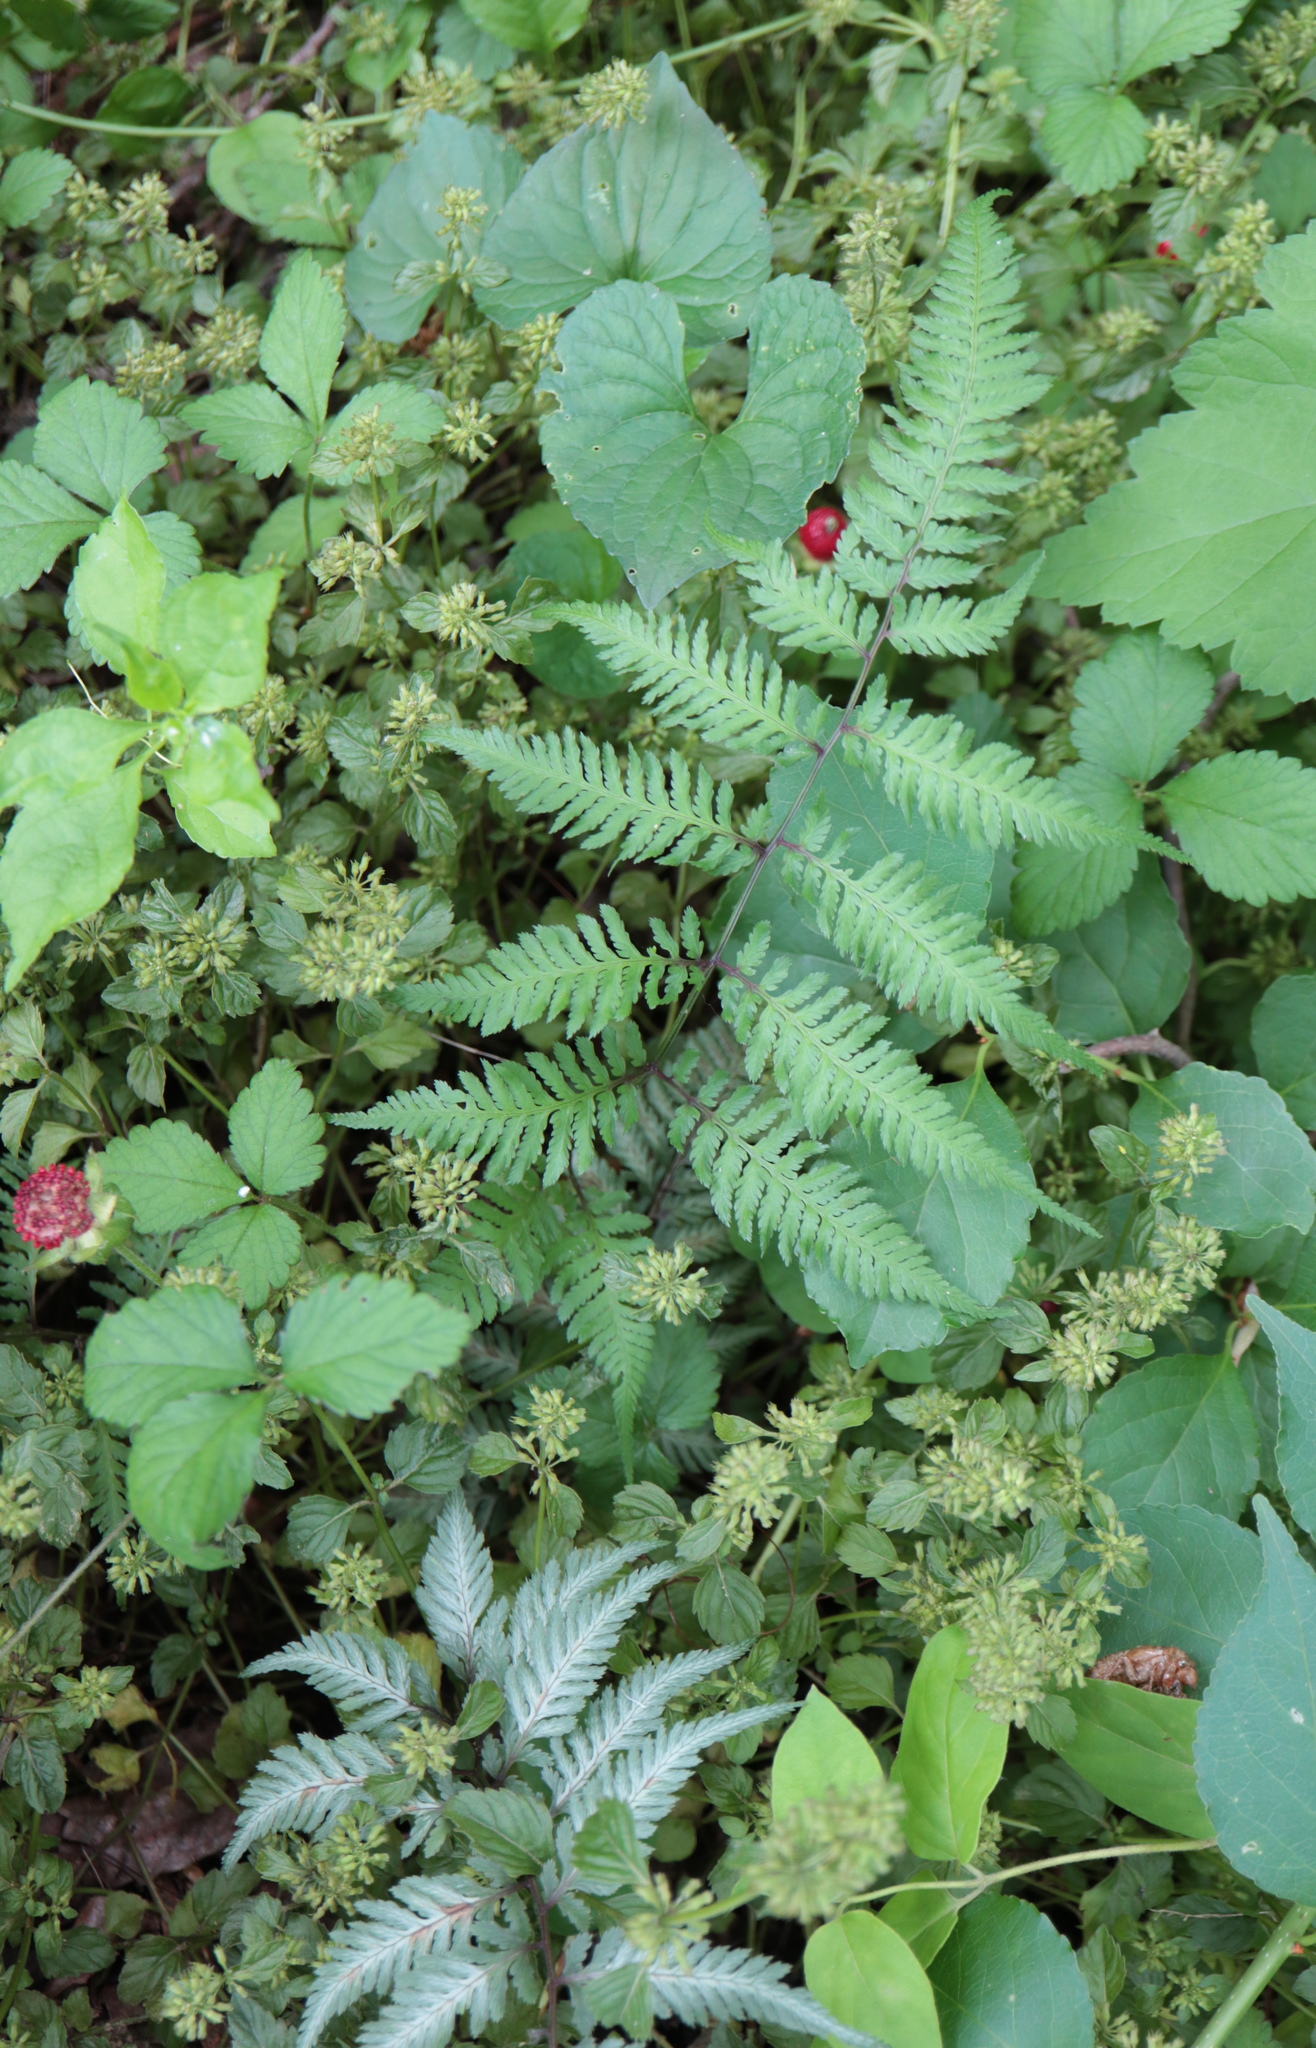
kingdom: Plantae
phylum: Tracheophyta
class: Polypodiopsida
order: Polypodiales
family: Athyriaceae
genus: Anisocampium
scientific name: Anisocampium niponicum
